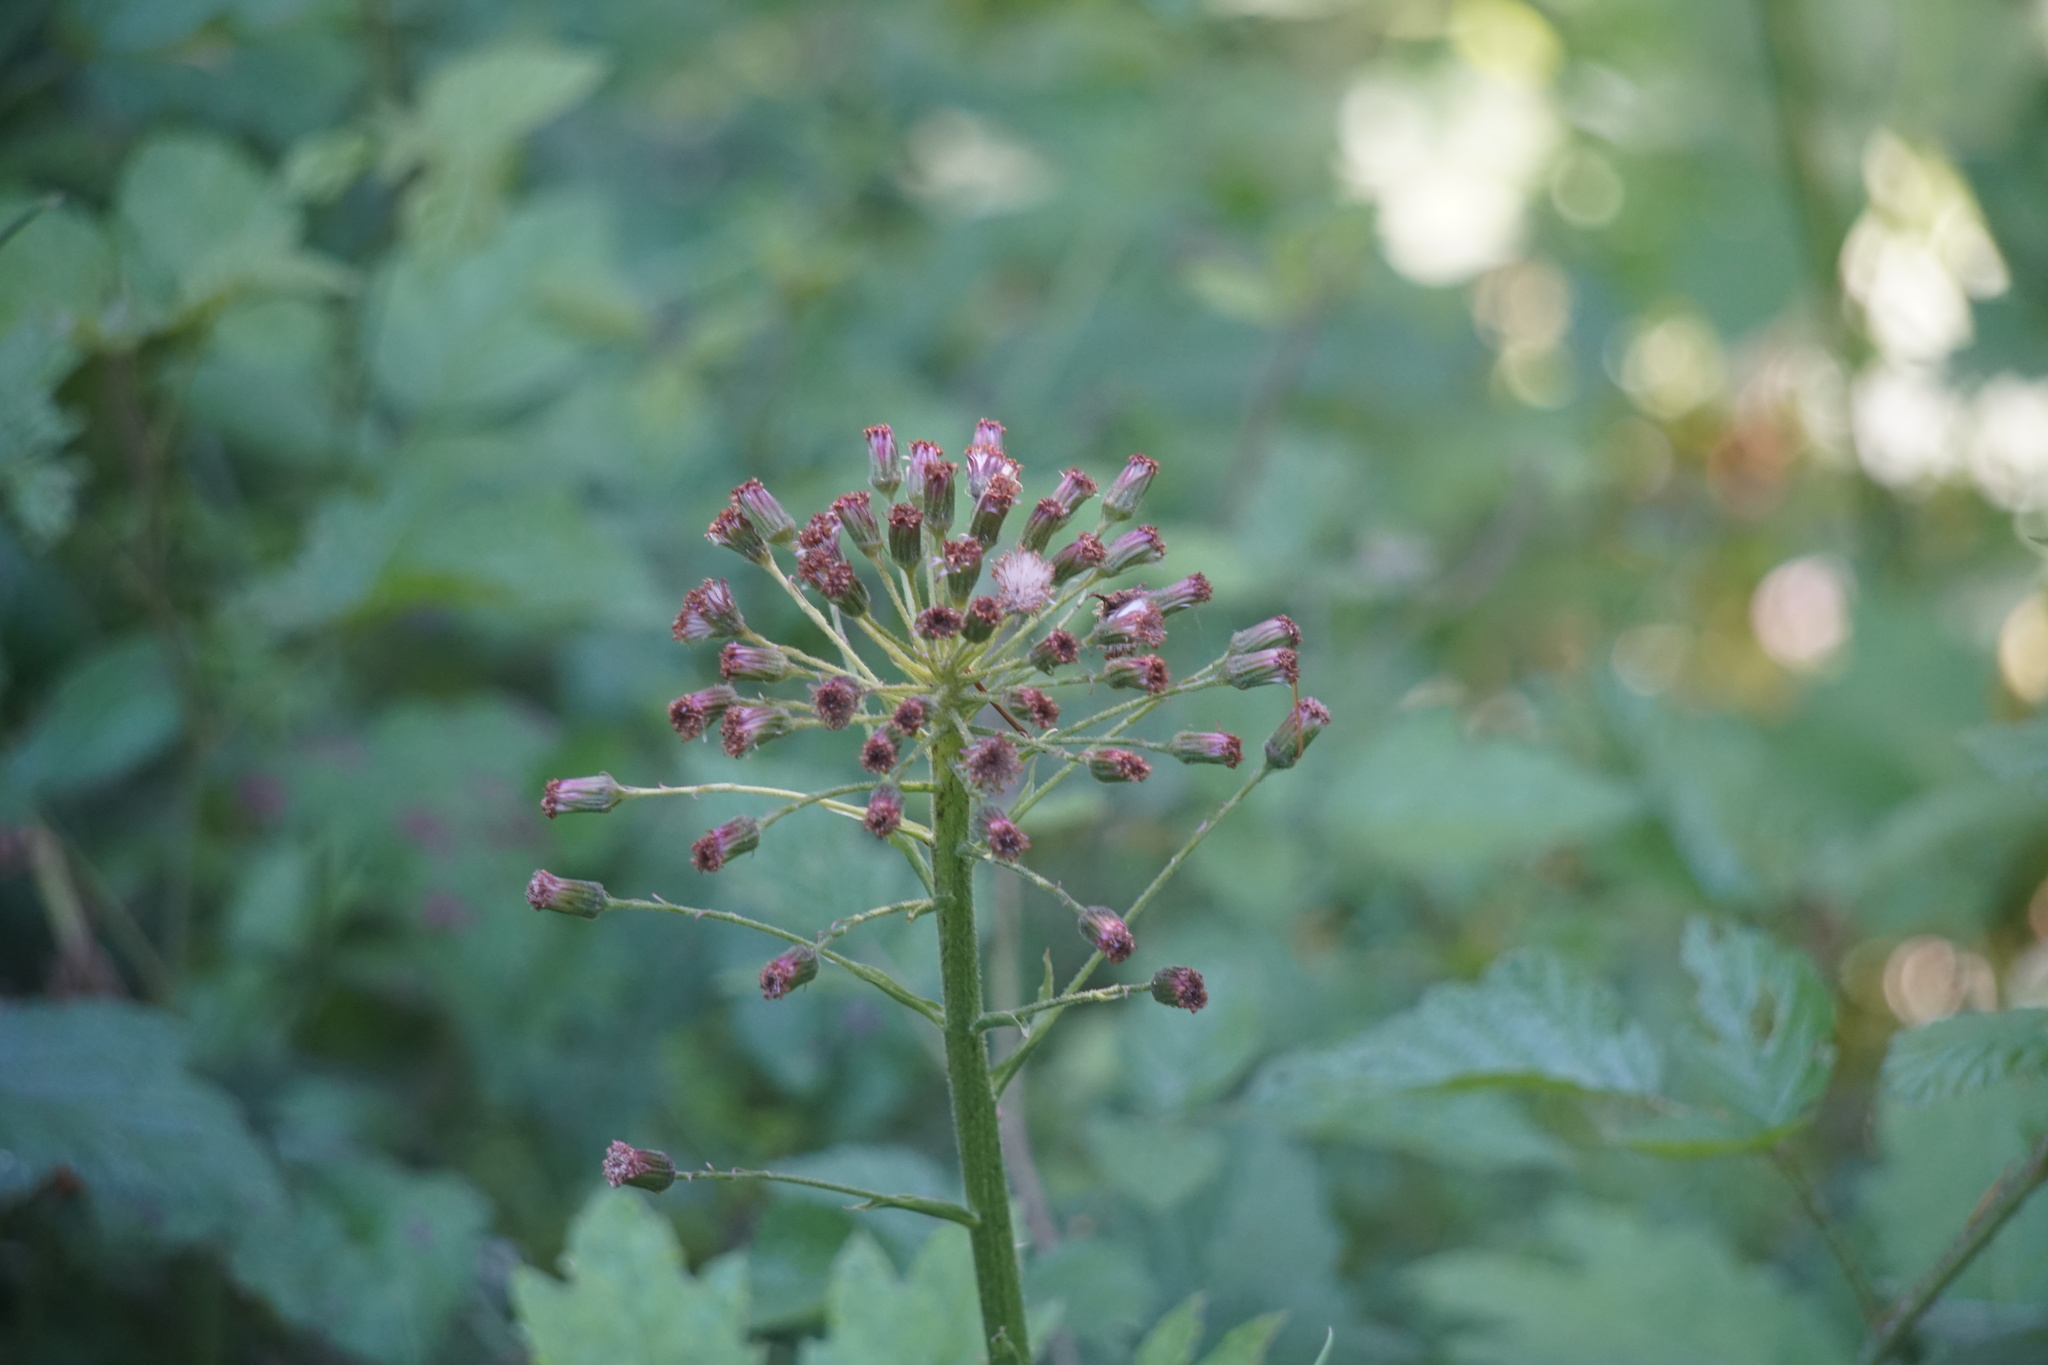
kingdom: Plantae
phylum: Tracheophyta
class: Magnoliopsida
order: Asterales
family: Asteraceae
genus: Petasites
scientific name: Petasites frigidus
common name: Arctic butterbur
